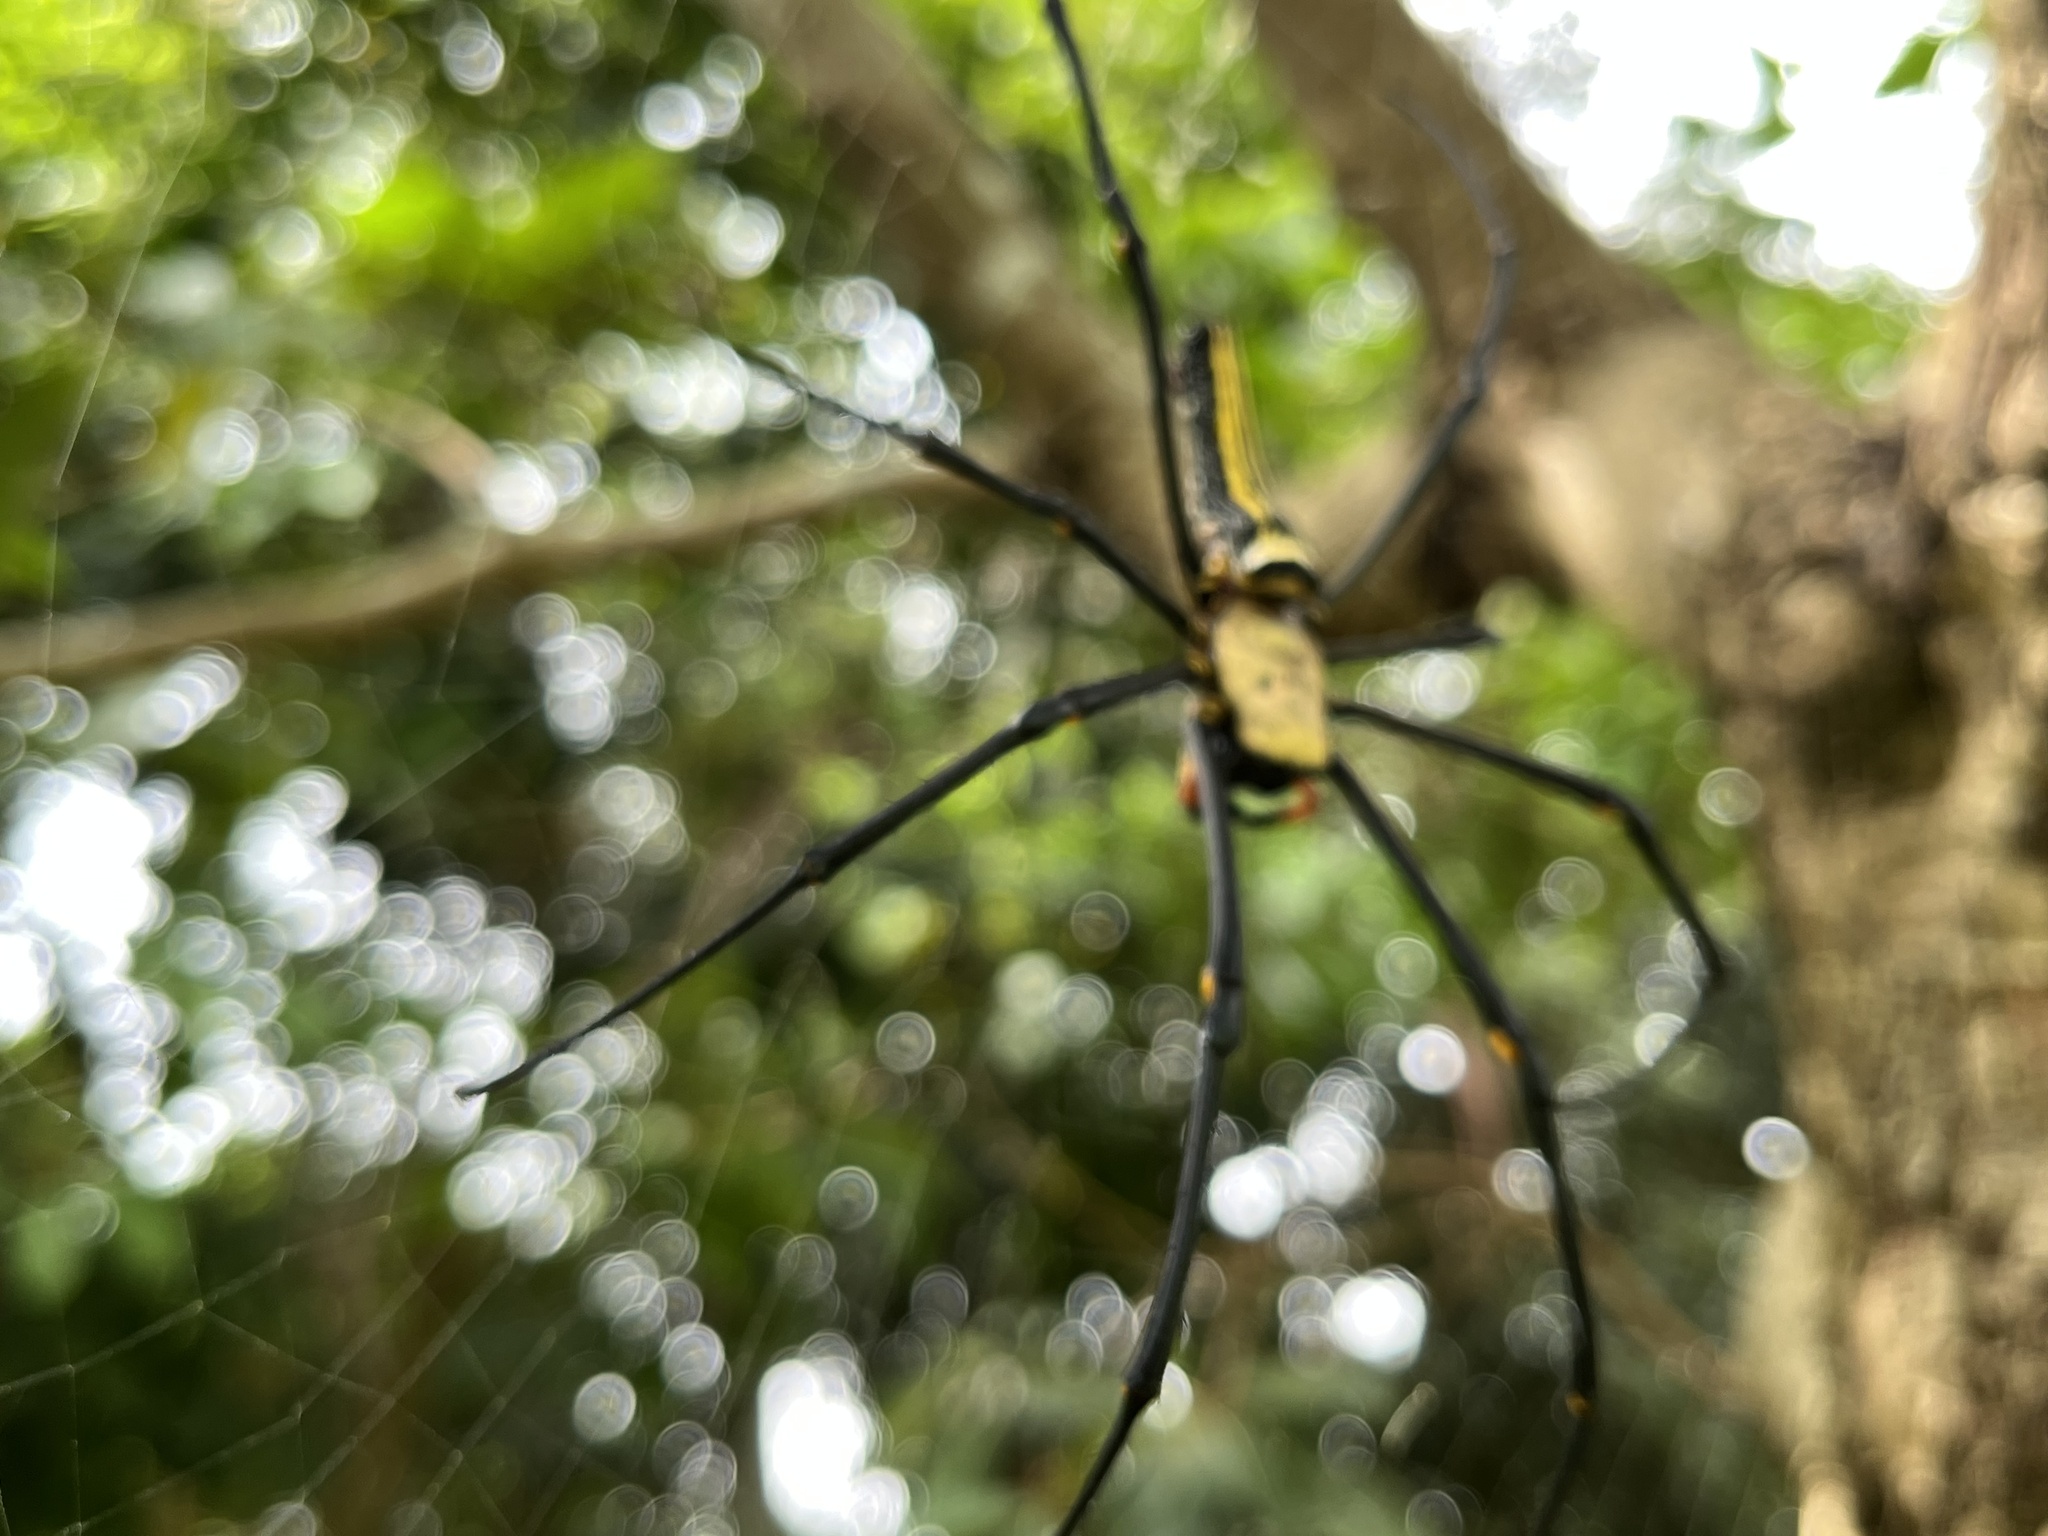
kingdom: Animalia
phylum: Arthropoda
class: Arachnida
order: Araneae
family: Araneidae
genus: Nephila
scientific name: Nephila pilipes
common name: Giant golden orb weaver
